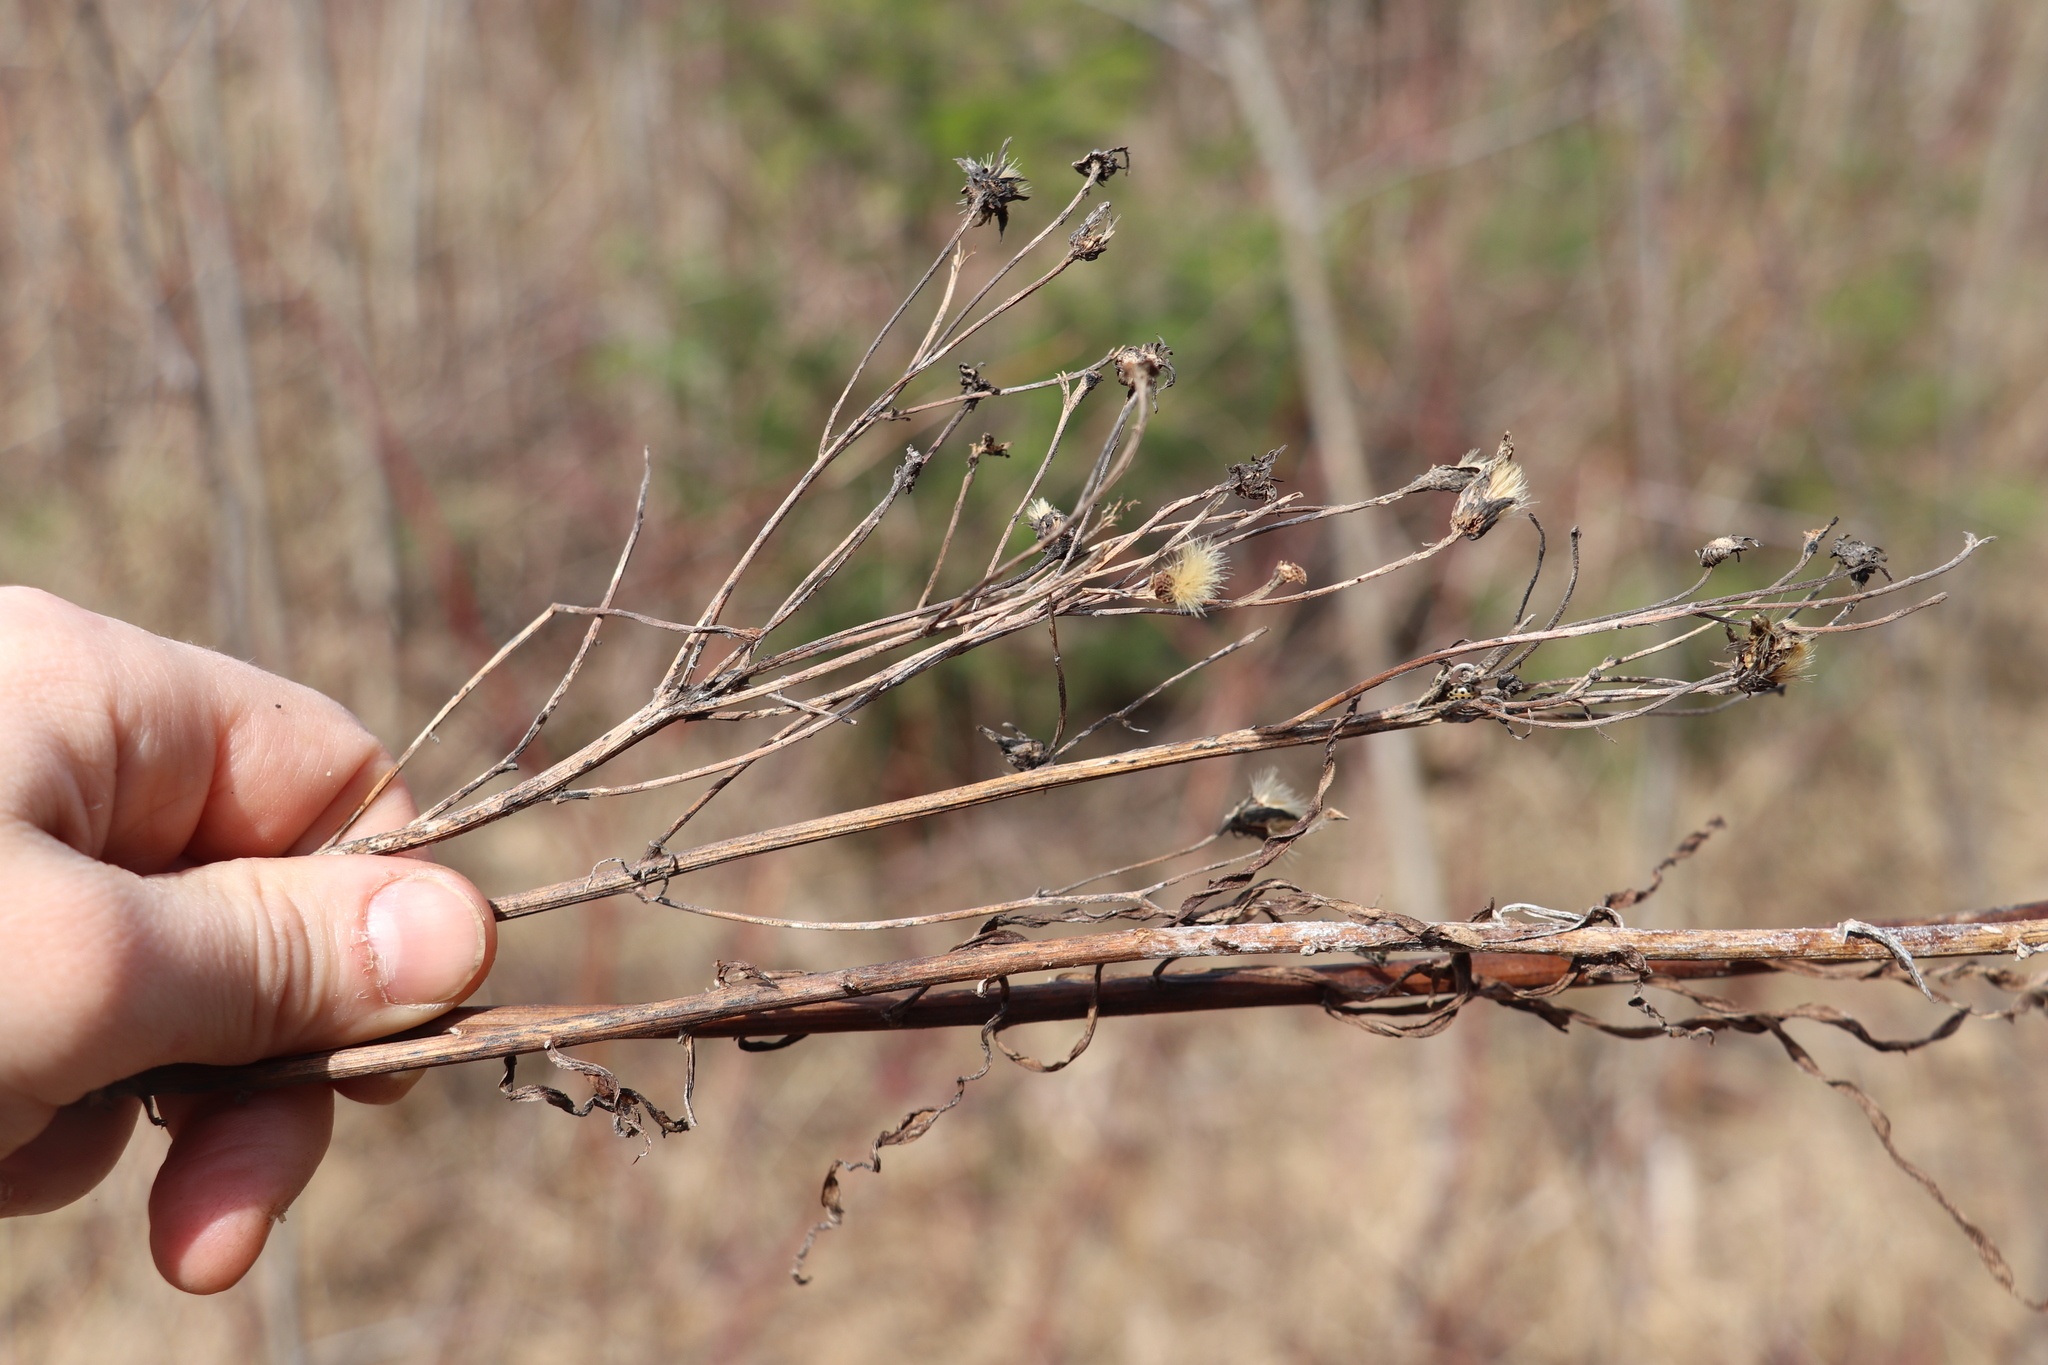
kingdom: Plantae
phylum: Tracheophyta
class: Magnoliopsida
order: Asterales
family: Asteraceae
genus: Lactuca
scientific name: Lactuca sibirica
